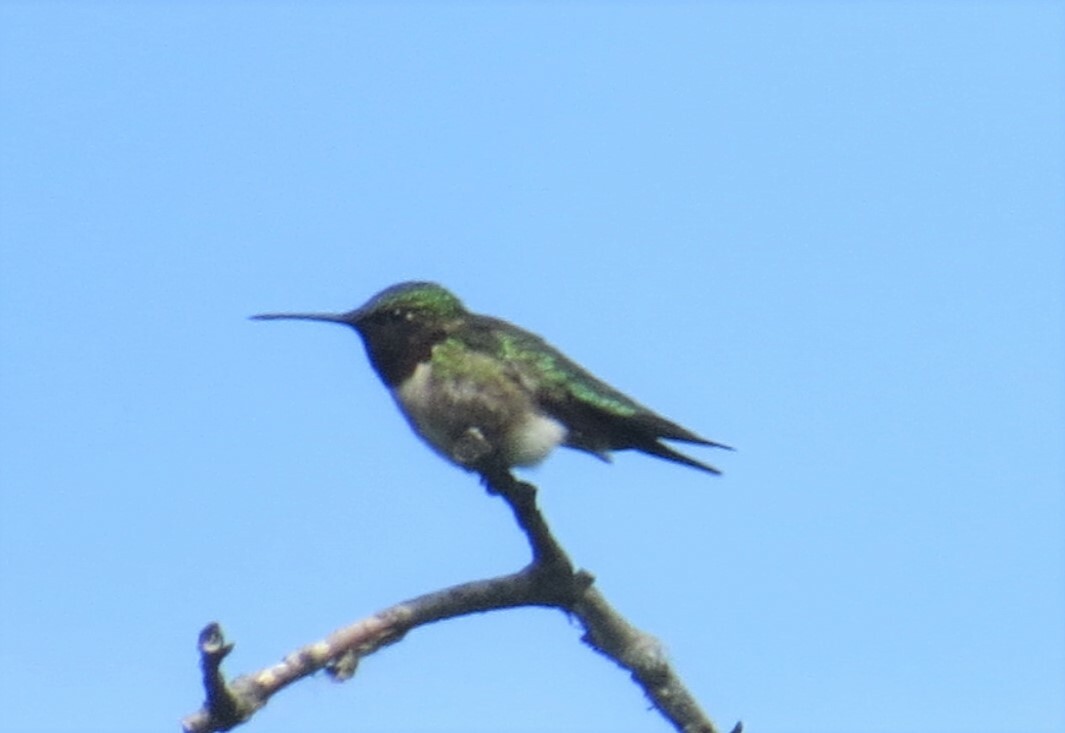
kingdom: Animalia
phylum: Chordata
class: Aves
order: Apodiformes
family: Trochilidae
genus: Archilochus
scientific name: Archilochus colubris
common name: Ruby-throated hummingbird
